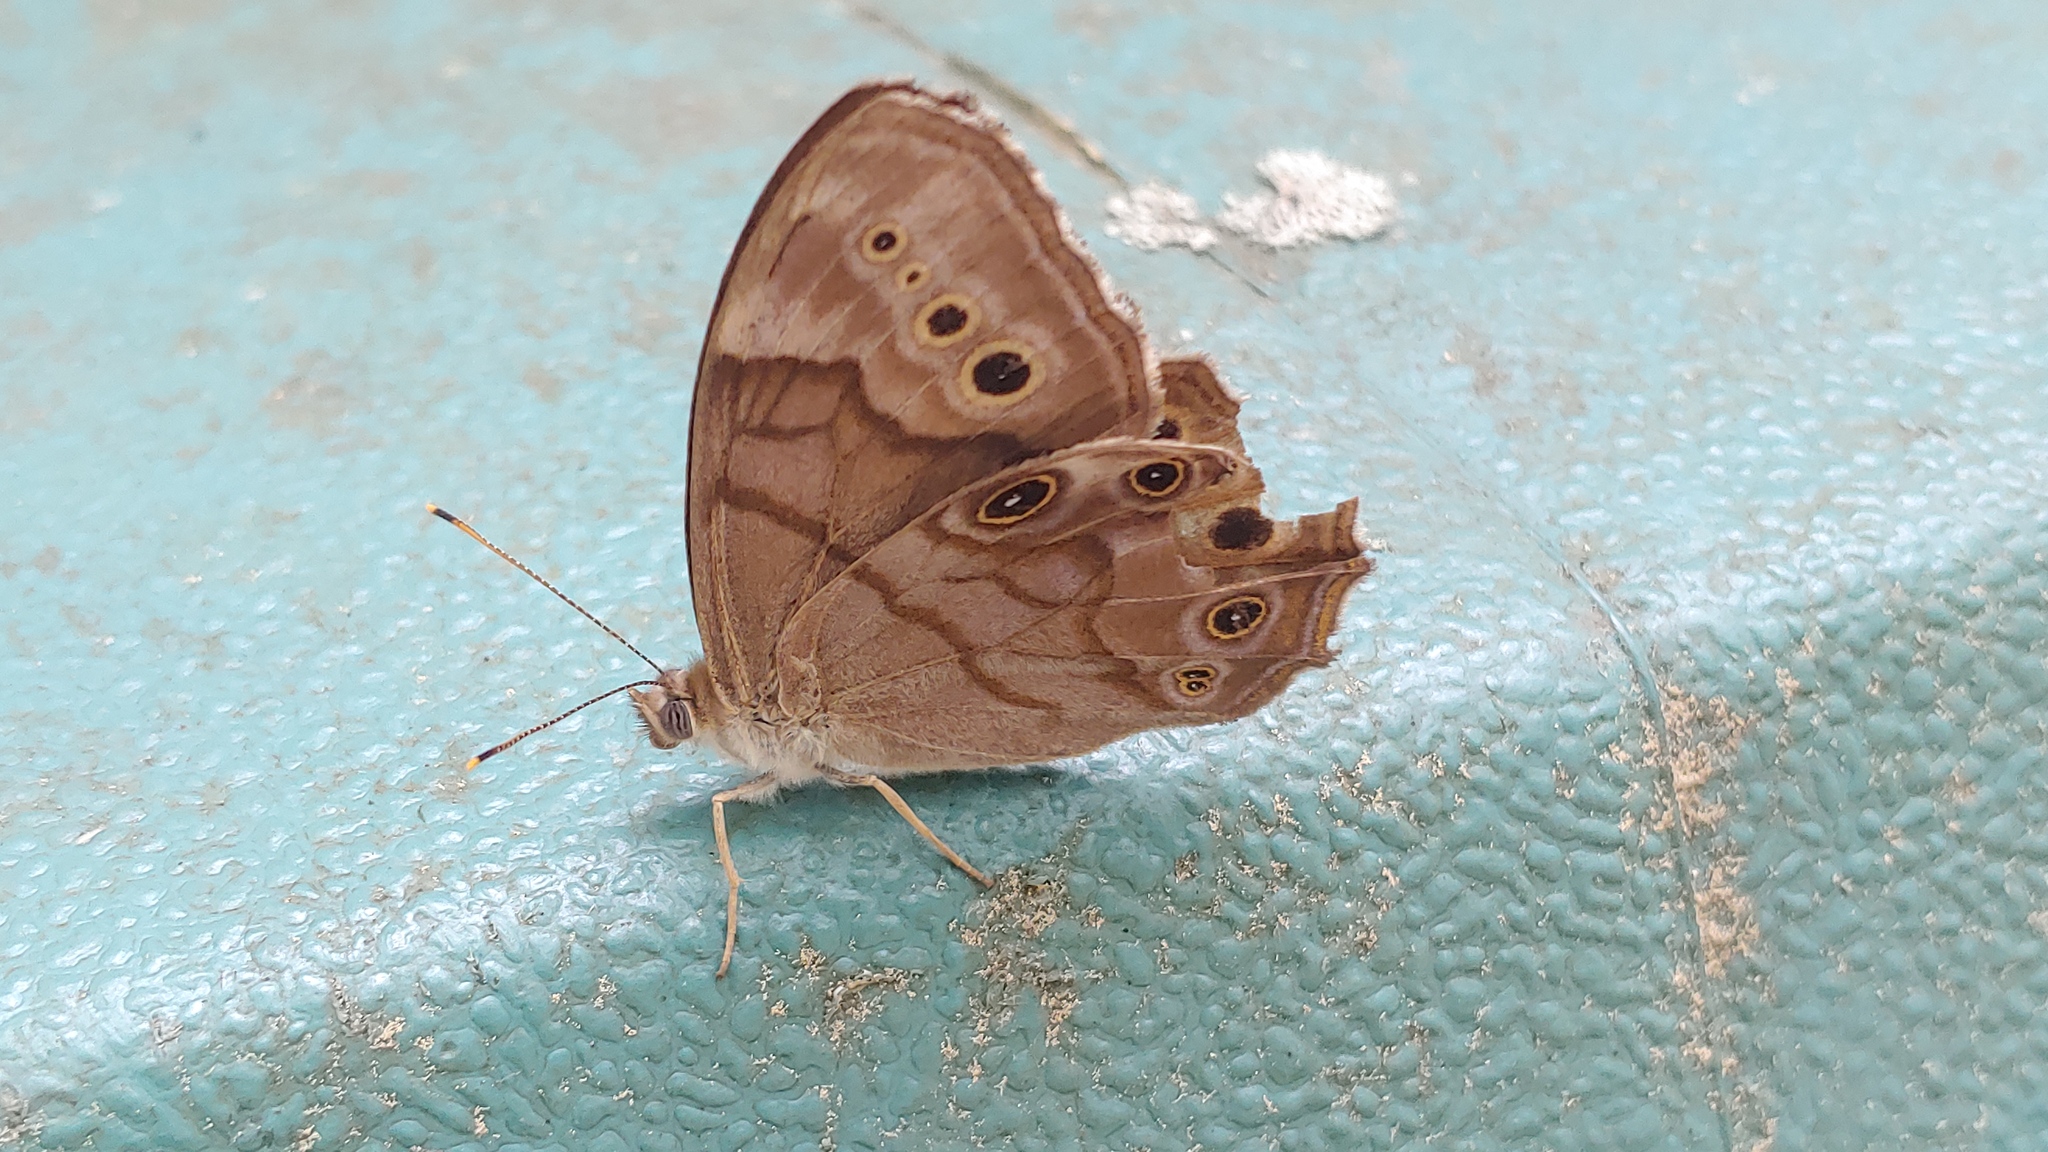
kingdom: Animalia
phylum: Arthropoda
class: Insecta
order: Lepidoptera
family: Nymphalidae
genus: Lethe
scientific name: Lethe anthedon
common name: Northern pearly-eye
